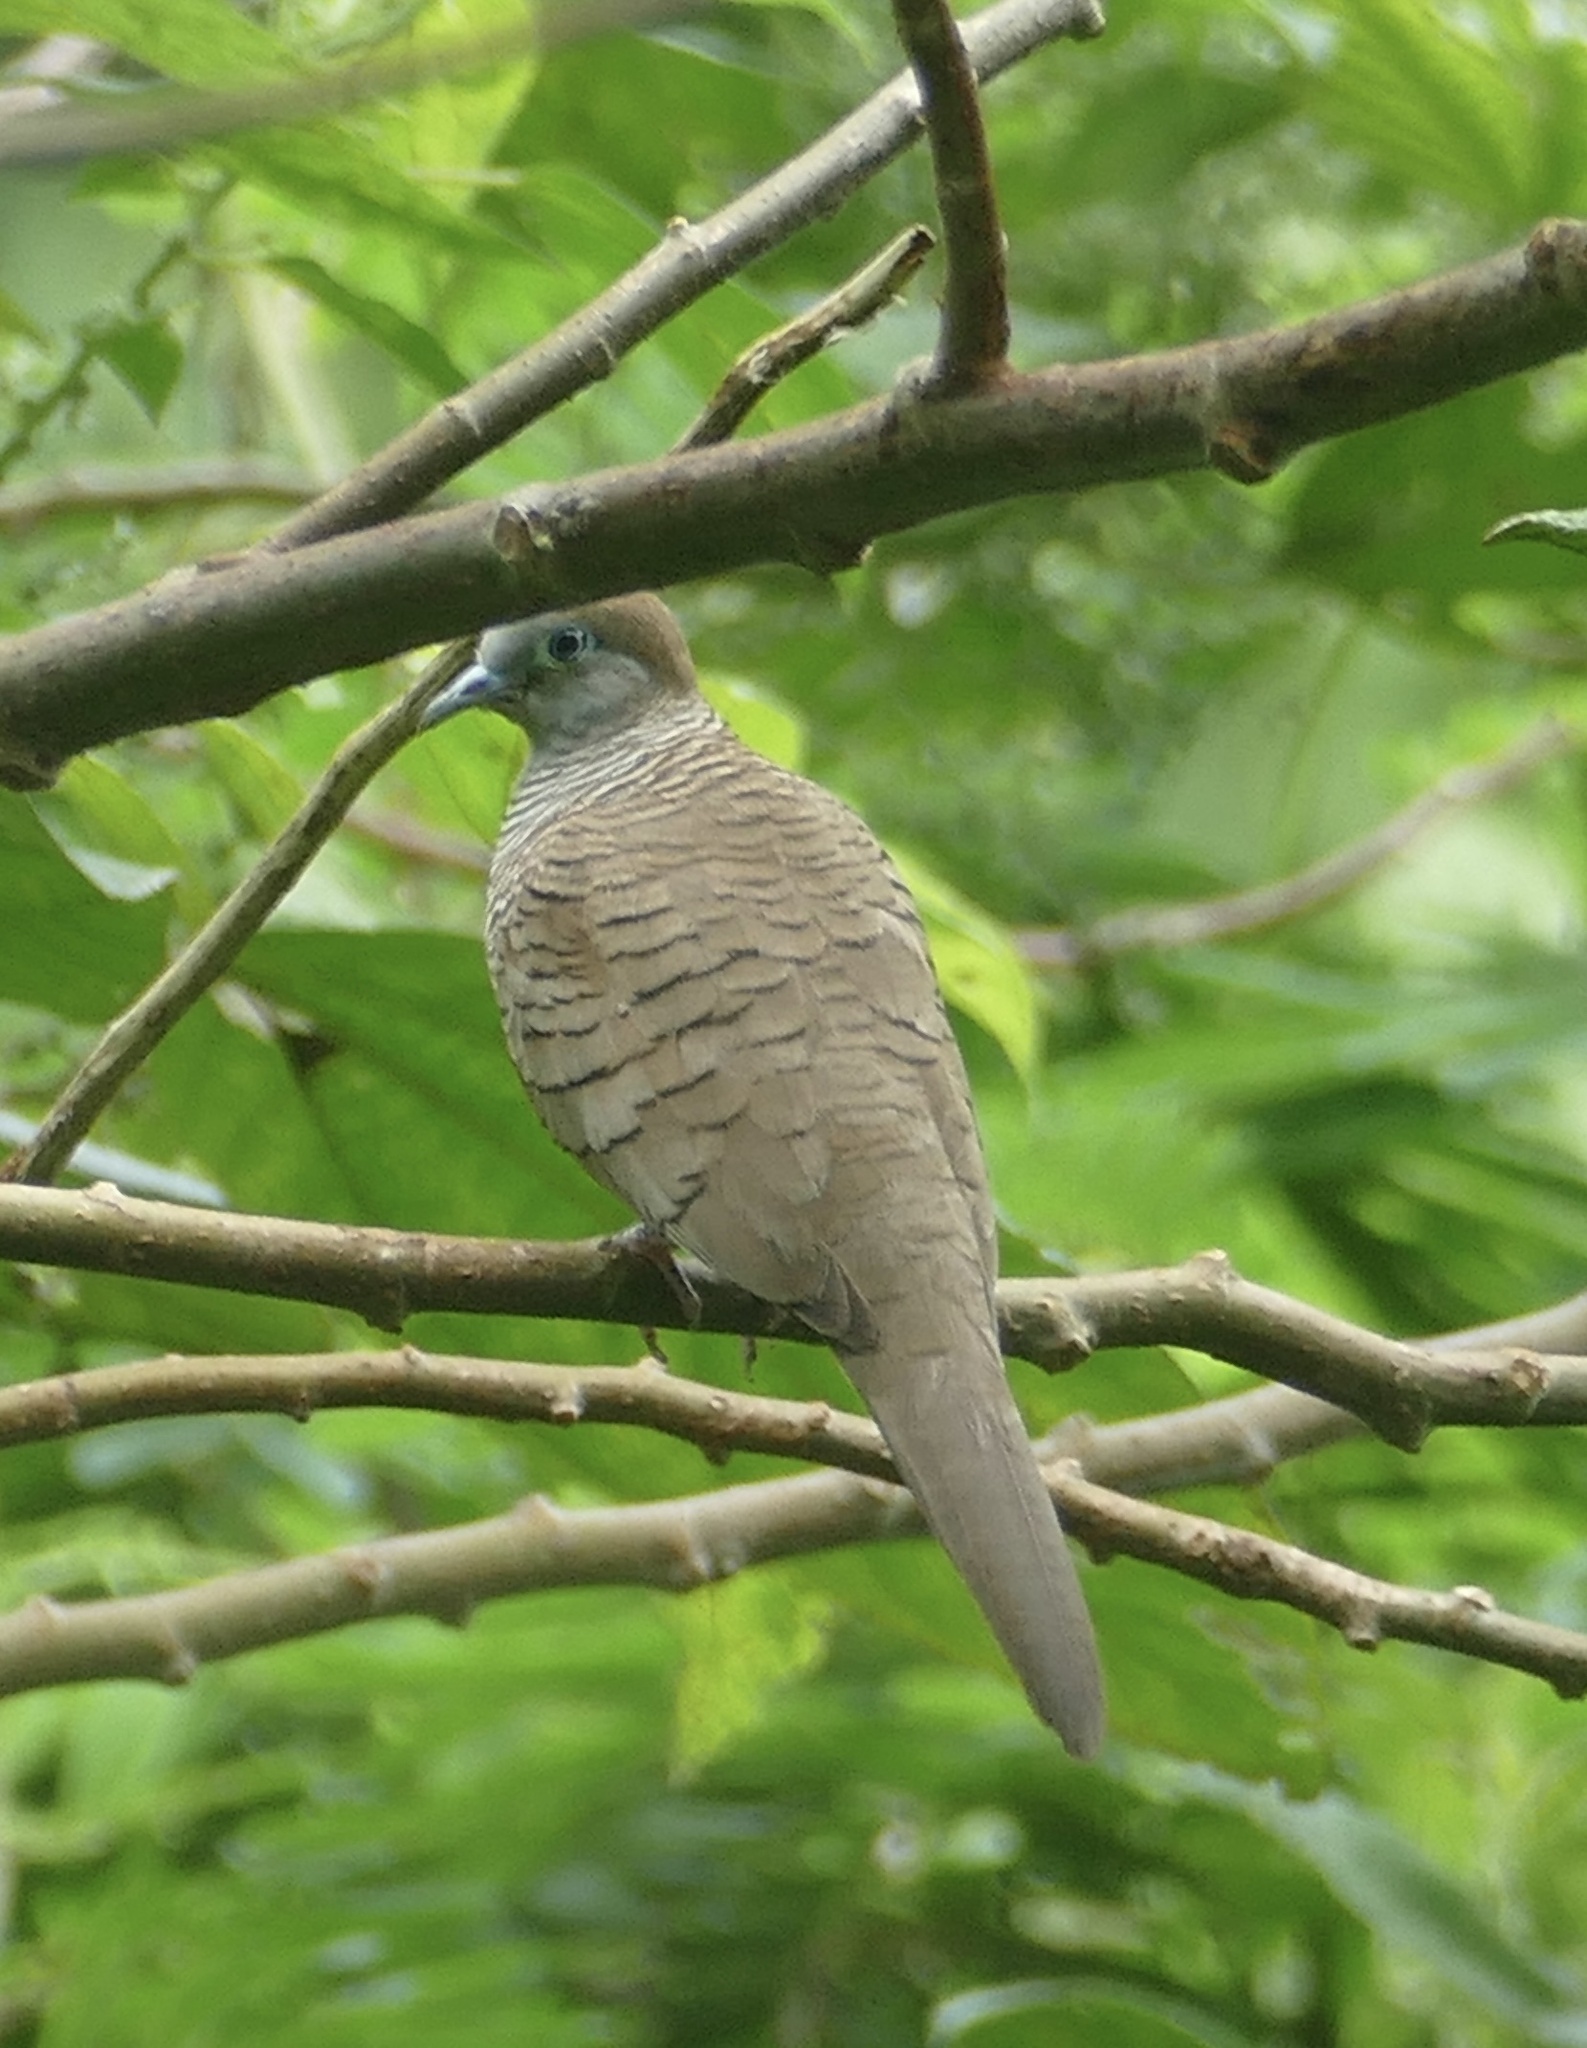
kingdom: Animalia
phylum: Chordata
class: Aves
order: Columbiformes
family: Columbidae
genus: Geopelia
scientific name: Geopelia striata
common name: Zebra dove
